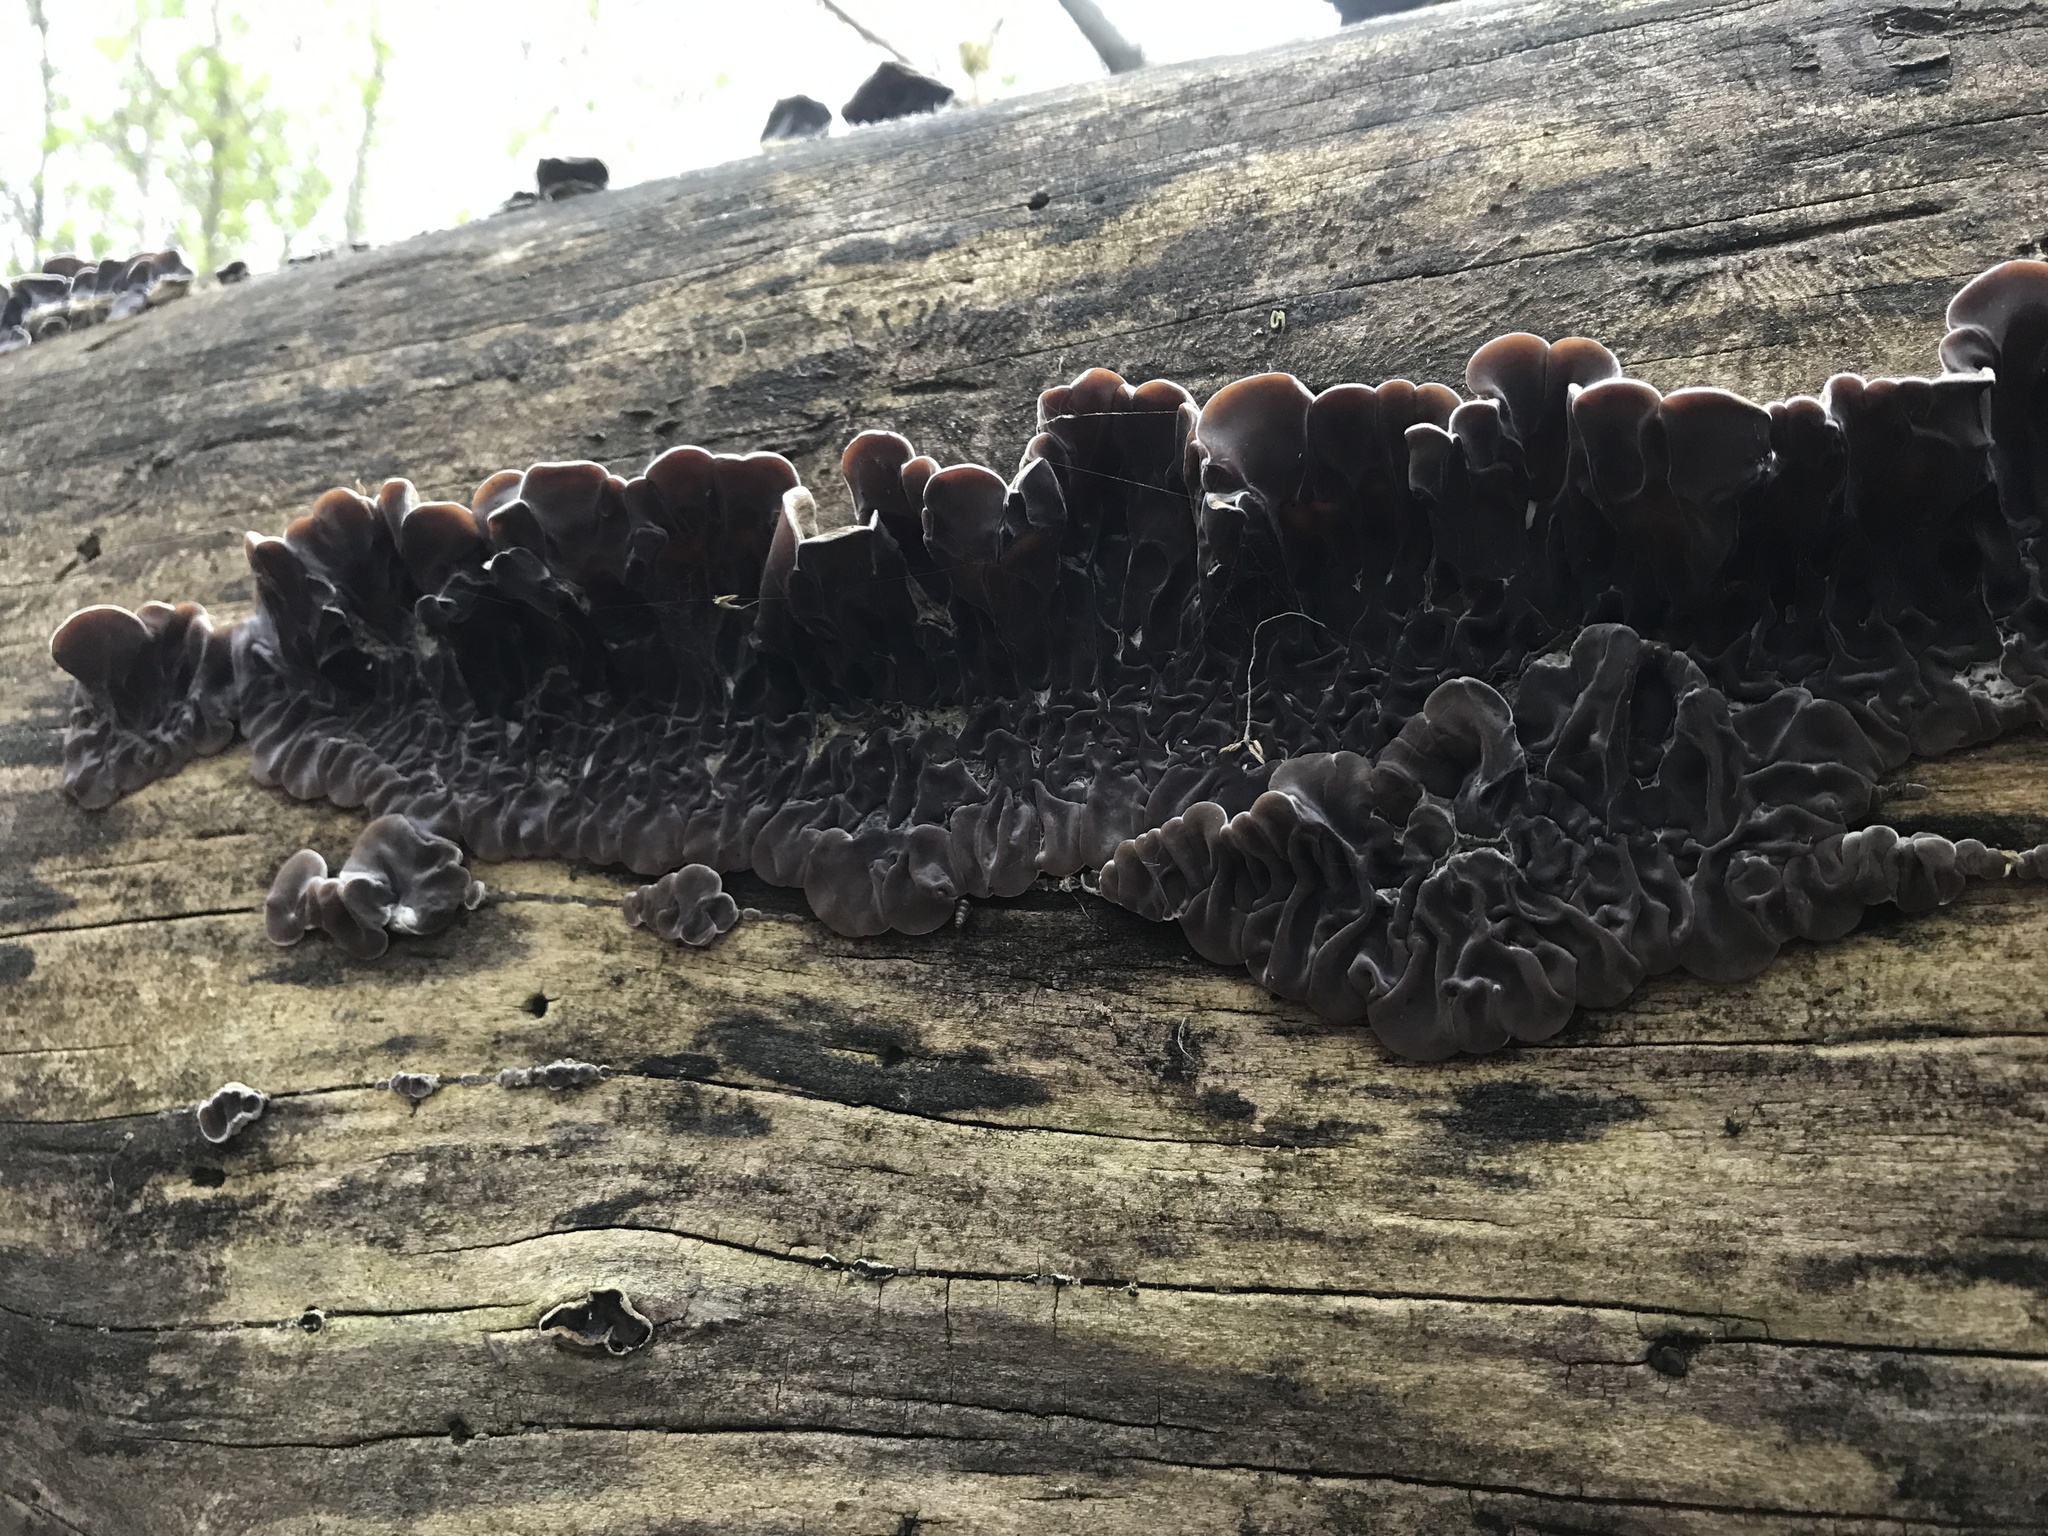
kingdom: Fungi
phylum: Basidiomycota
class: Agaricomycetes
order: Auriculariales
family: Auriculariaceae
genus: Auricularia
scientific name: Auricularia mesenterica
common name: Tripe fungus
